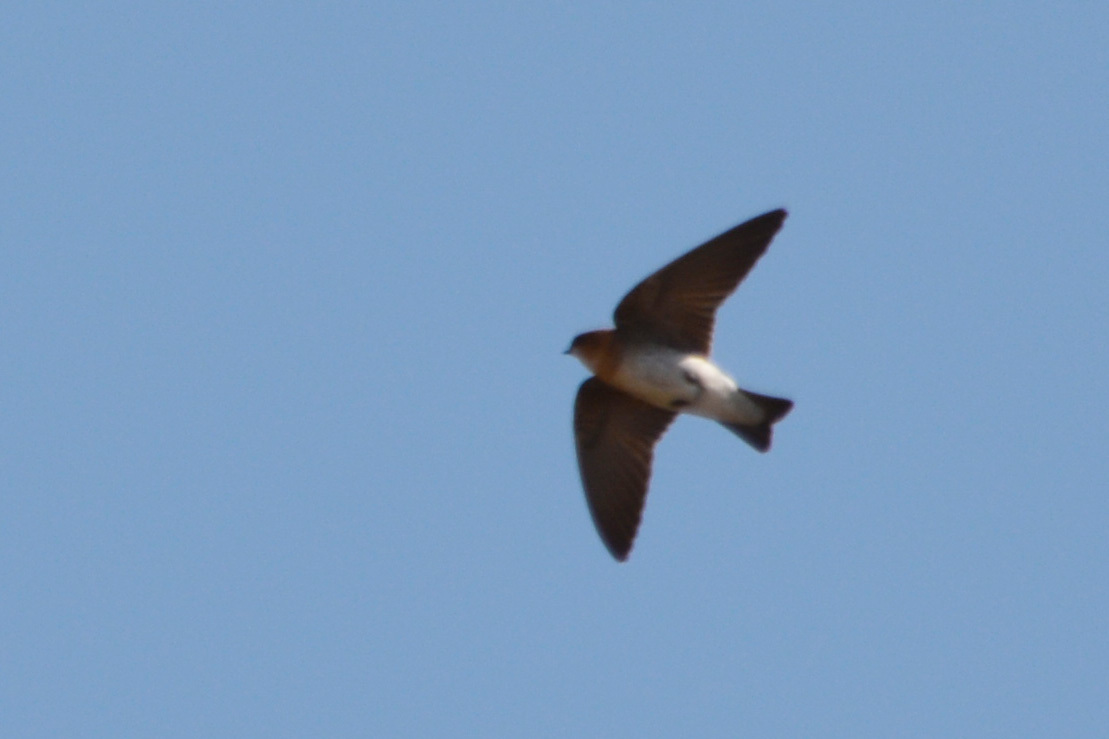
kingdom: Animalia
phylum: Chordata
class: Aves
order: Passeriformes
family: Hirundinidae
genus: Alopochelidon
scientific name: Alopochelidon fucata
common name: Tawny-headed swallow
